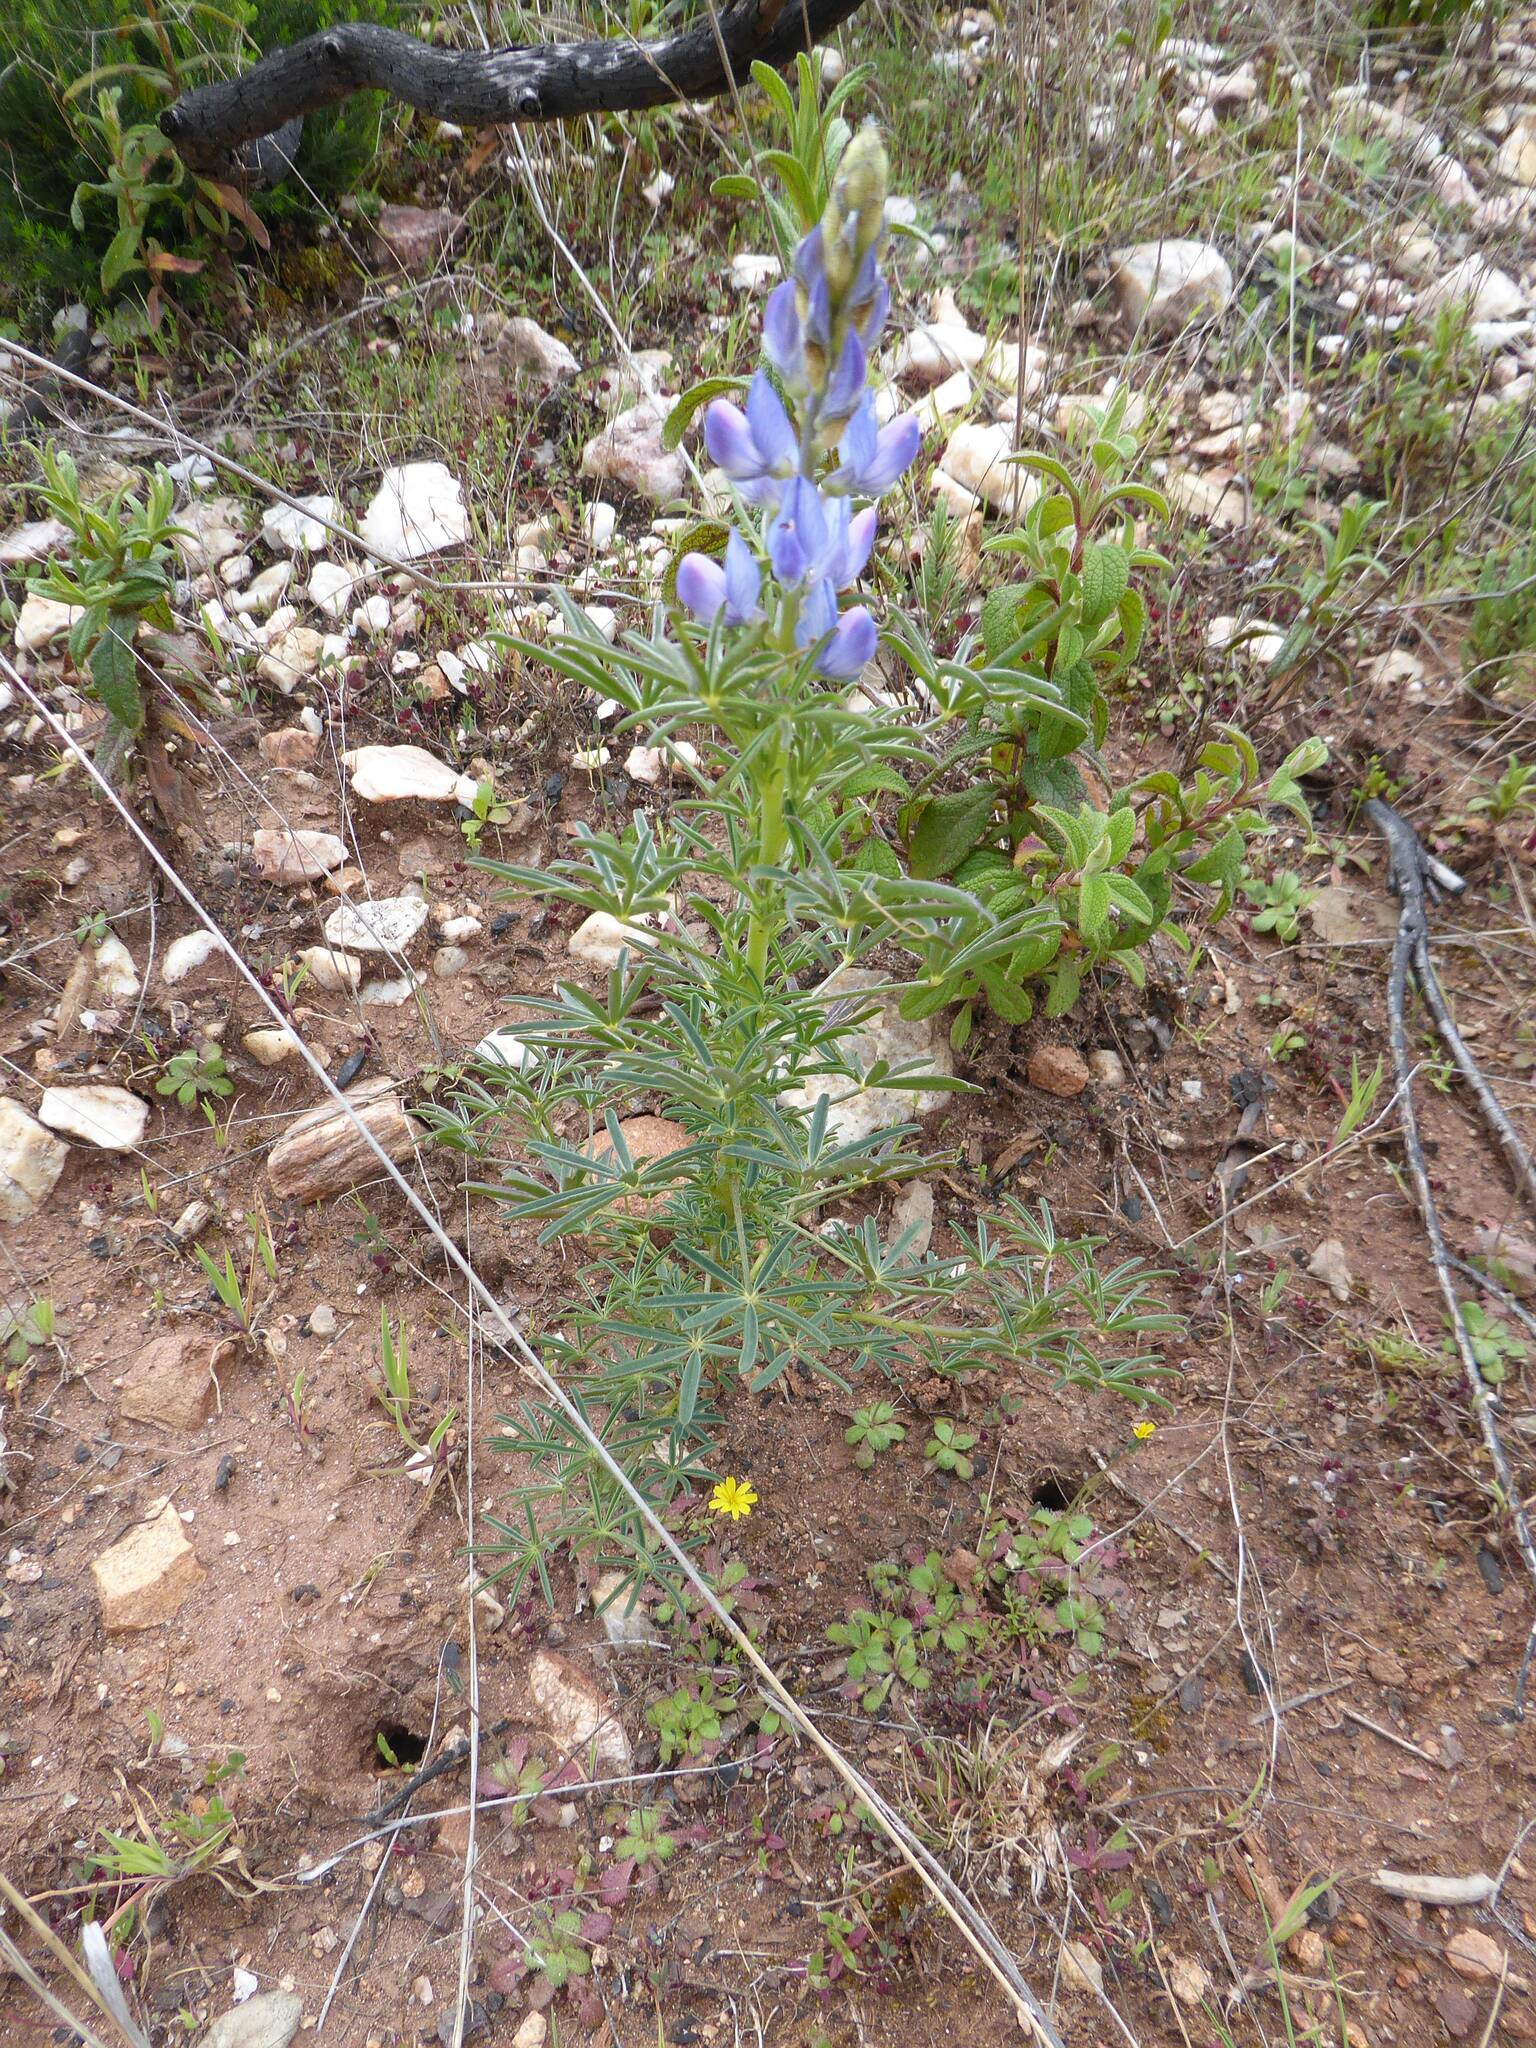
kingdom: Plantae
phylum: Tracheophyta
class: Magnoliopsida
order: Fabales
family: Fabaceae
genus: Lupinus
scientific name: Lupinus angustifolius
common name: Narrow-leaved lupin
